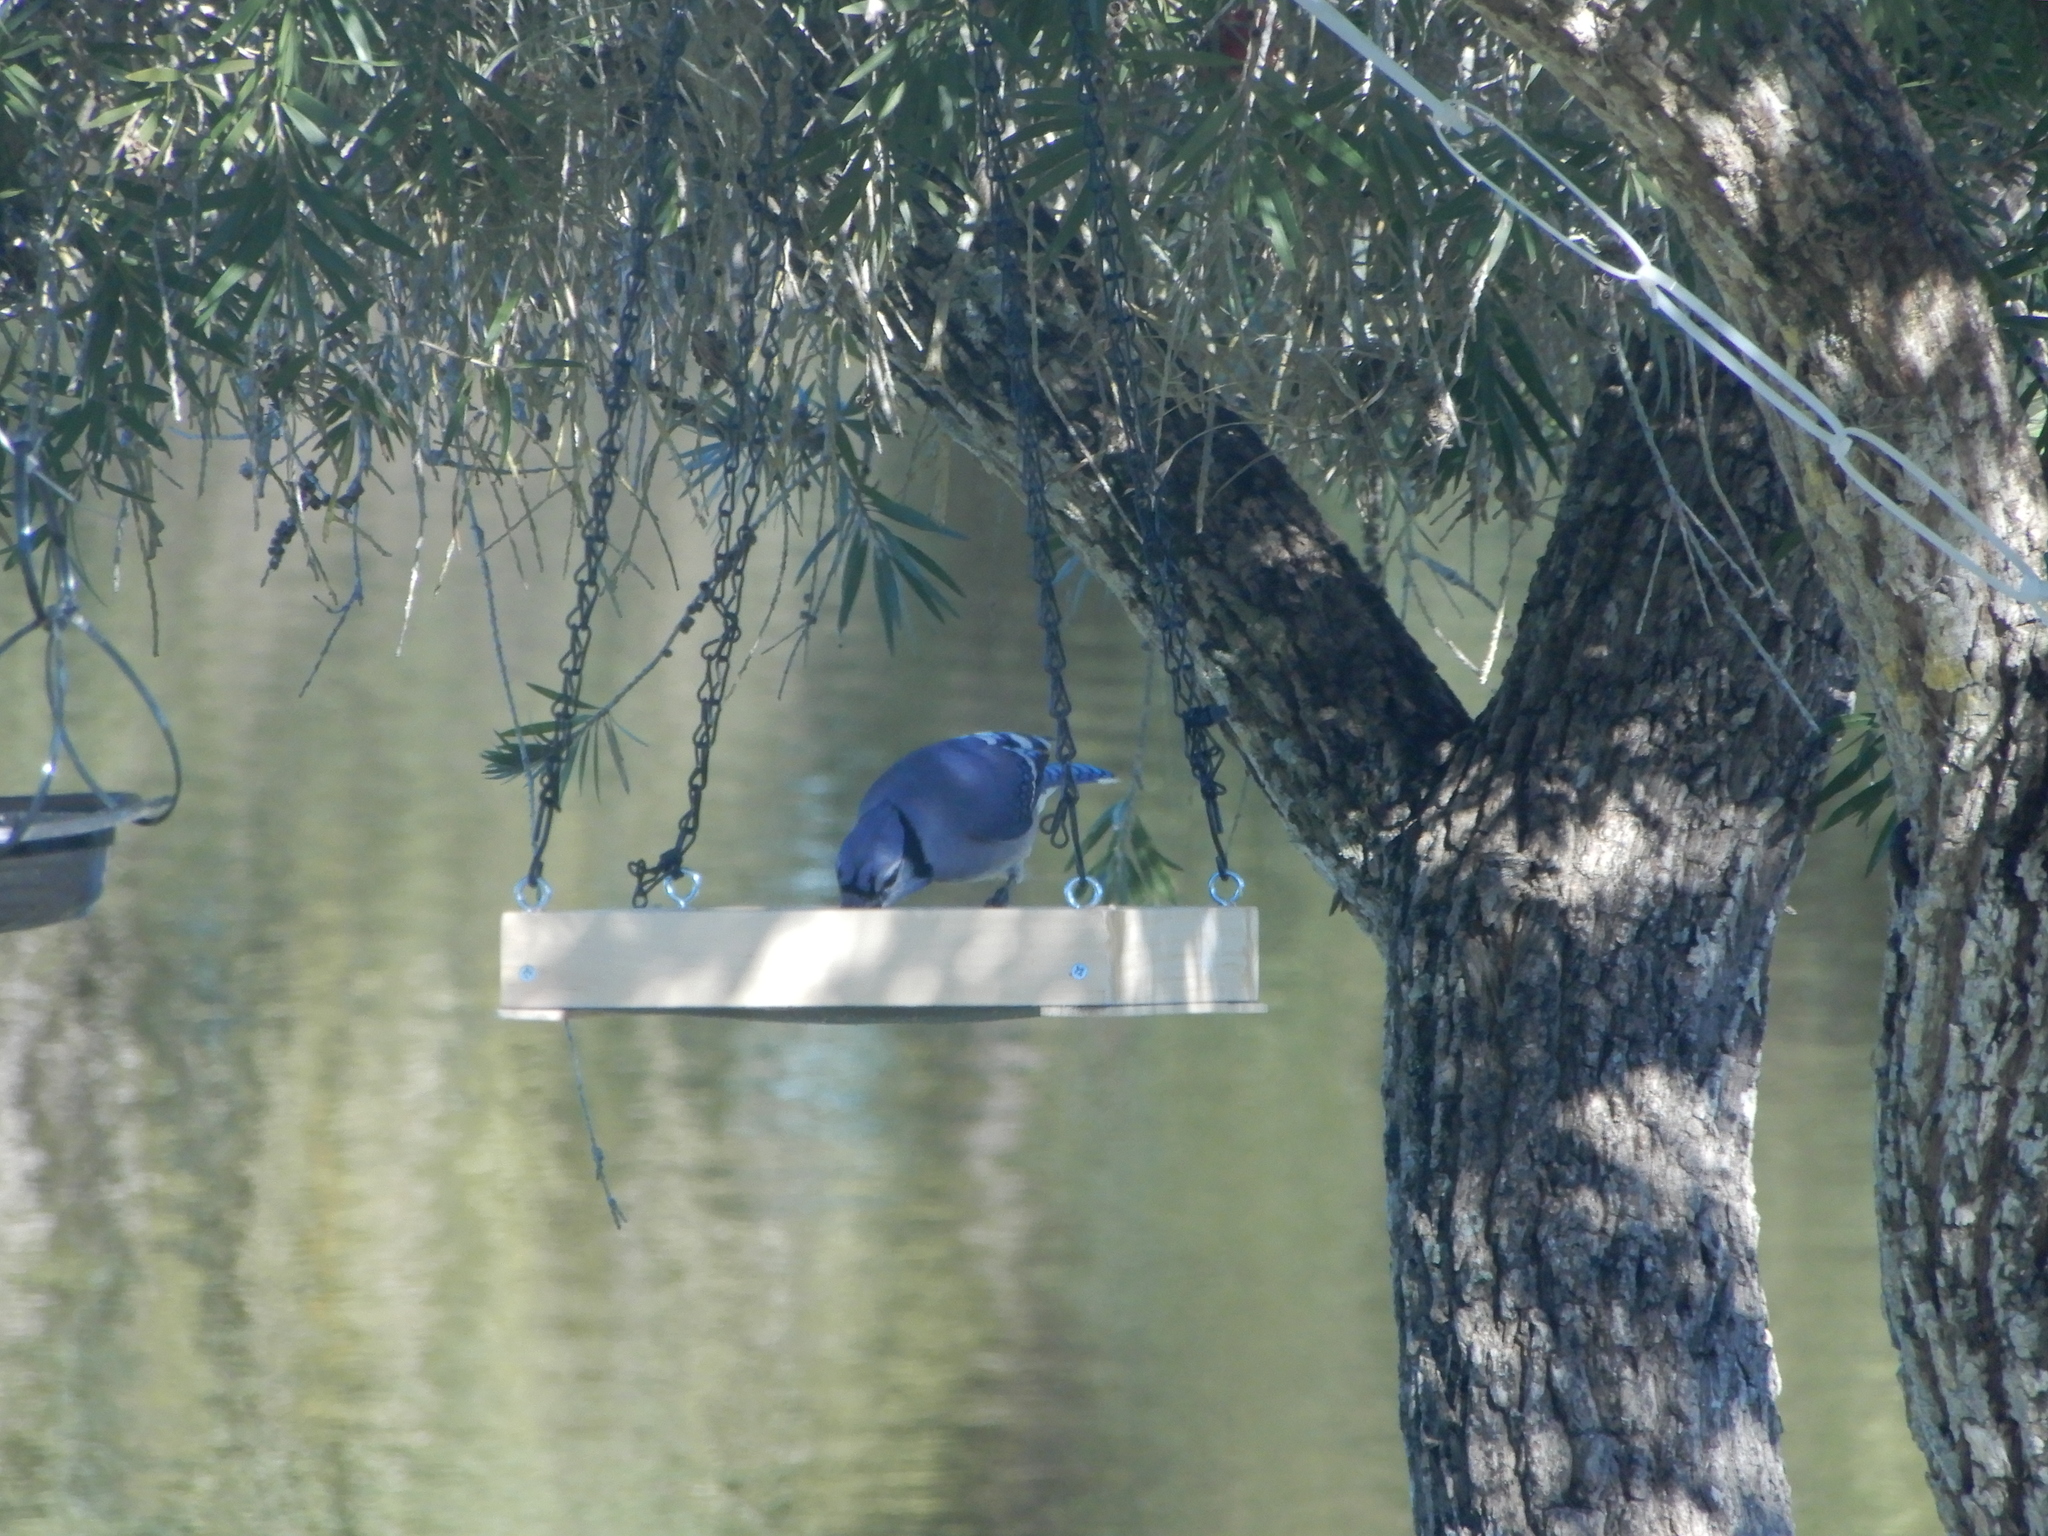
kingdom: Animalia
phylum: Chordata
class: Aves
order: Passeriformes
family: Corvidae
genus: Cyanocitta
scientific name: Cyanocitta cristata
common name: Blue jay
